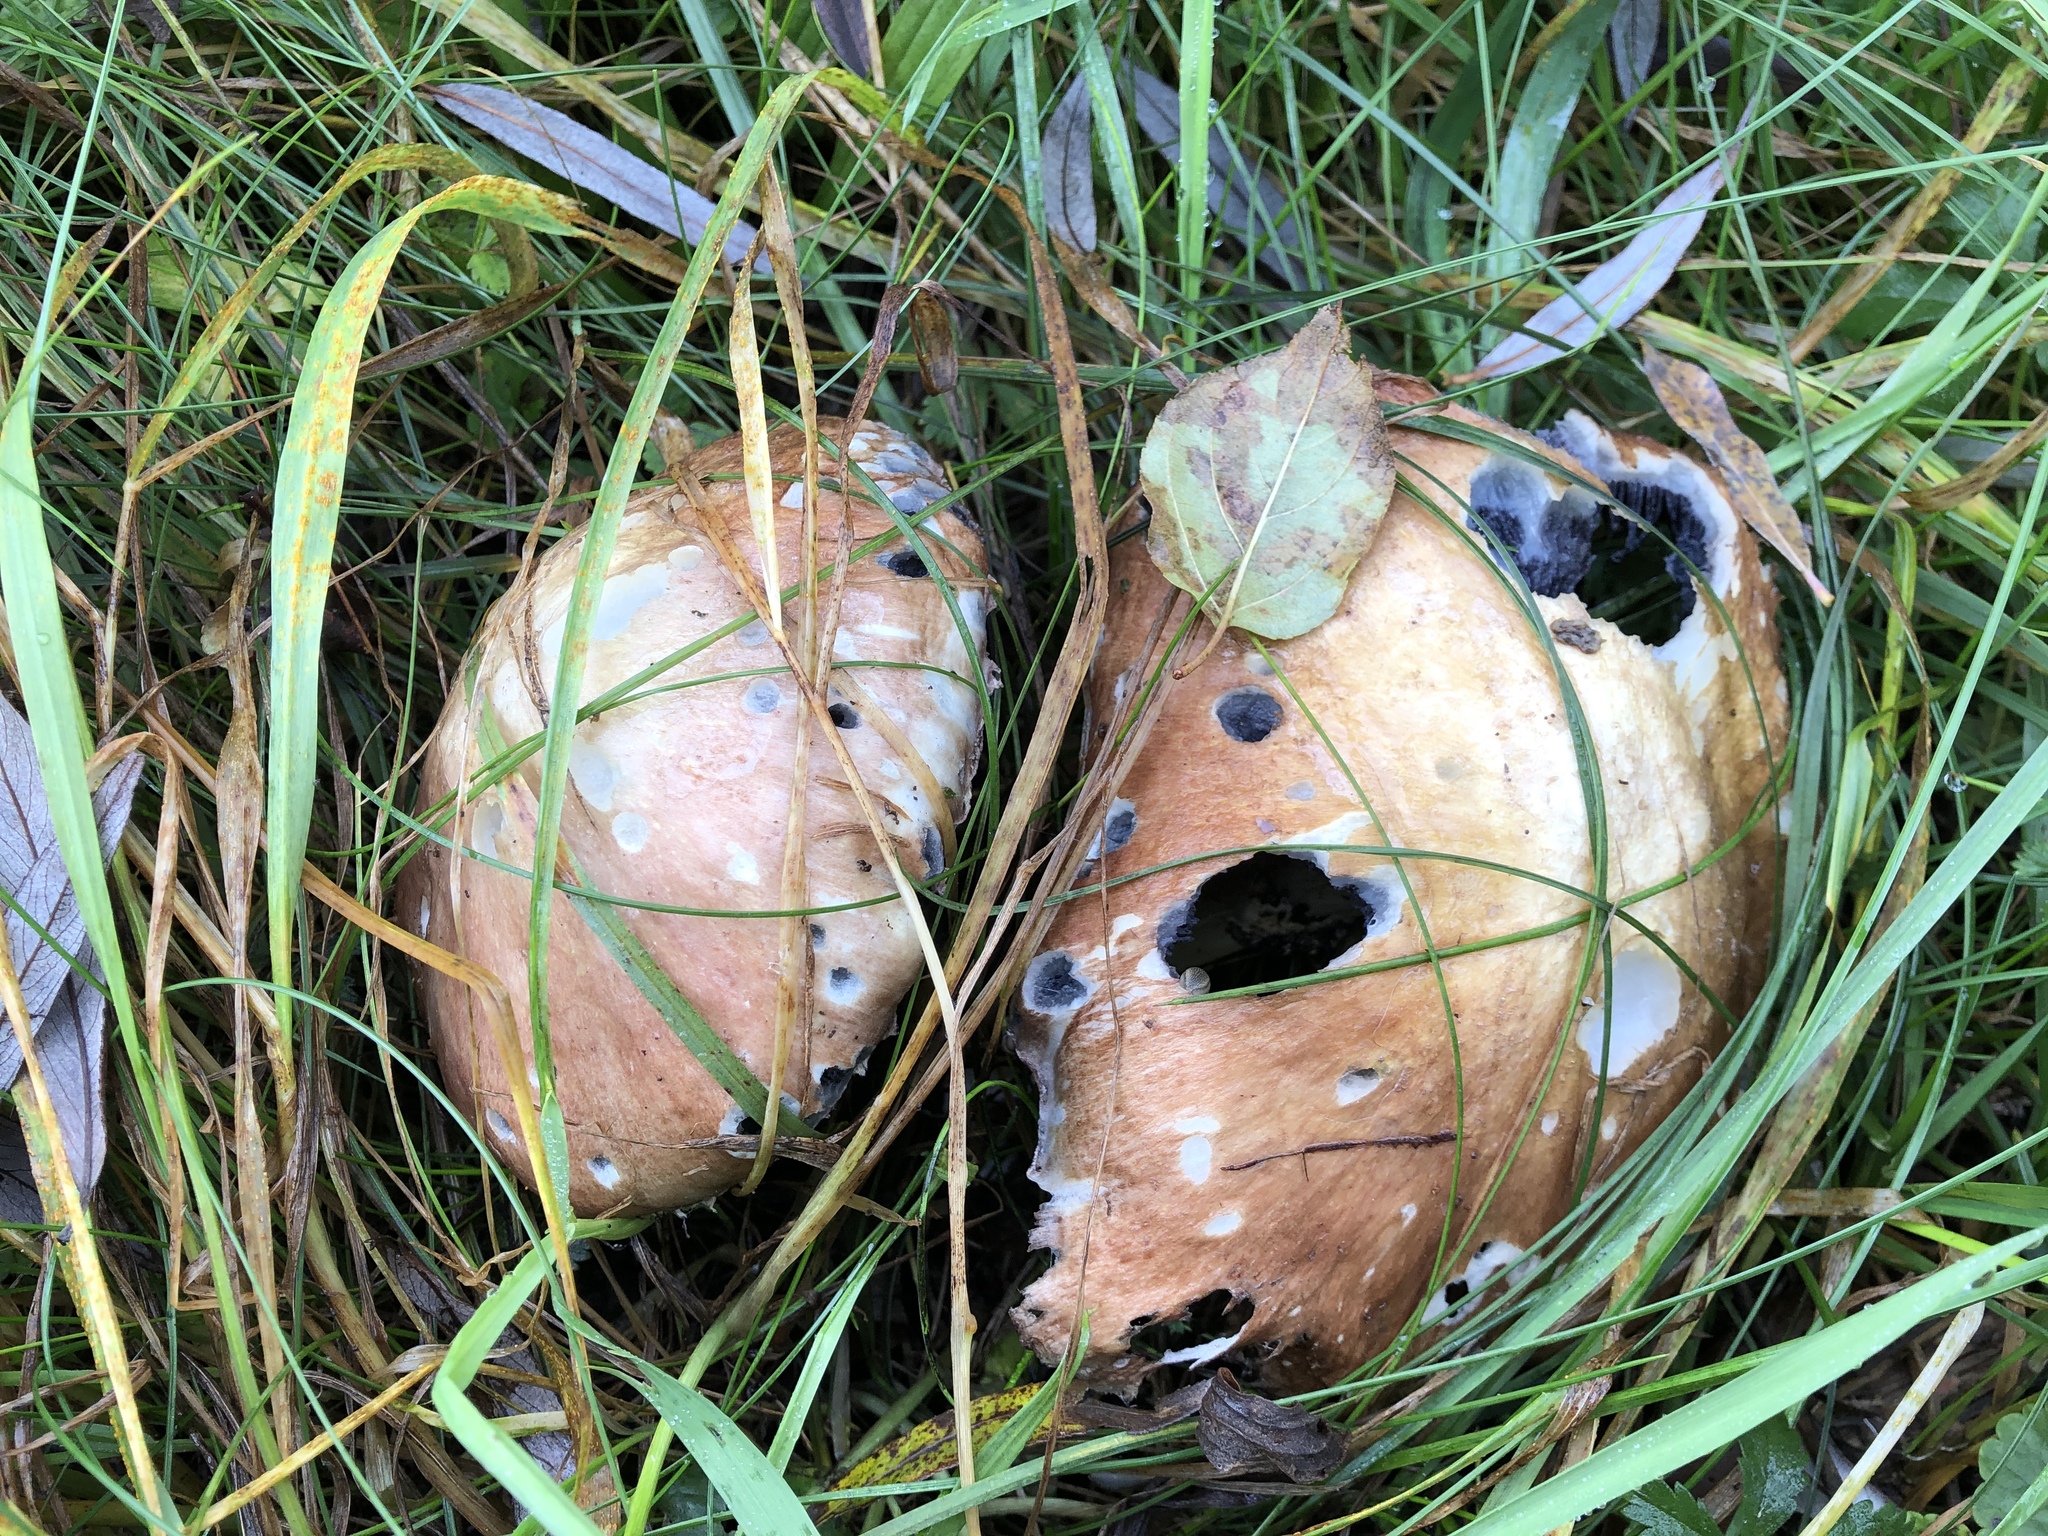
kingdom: Fungi
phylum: Basidiomycota
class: Agaricomycetes
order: Agaricales
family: Strophariaceae
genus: Stropharia
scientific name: Stropharia rugosoannulata
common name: Wine roundhead
